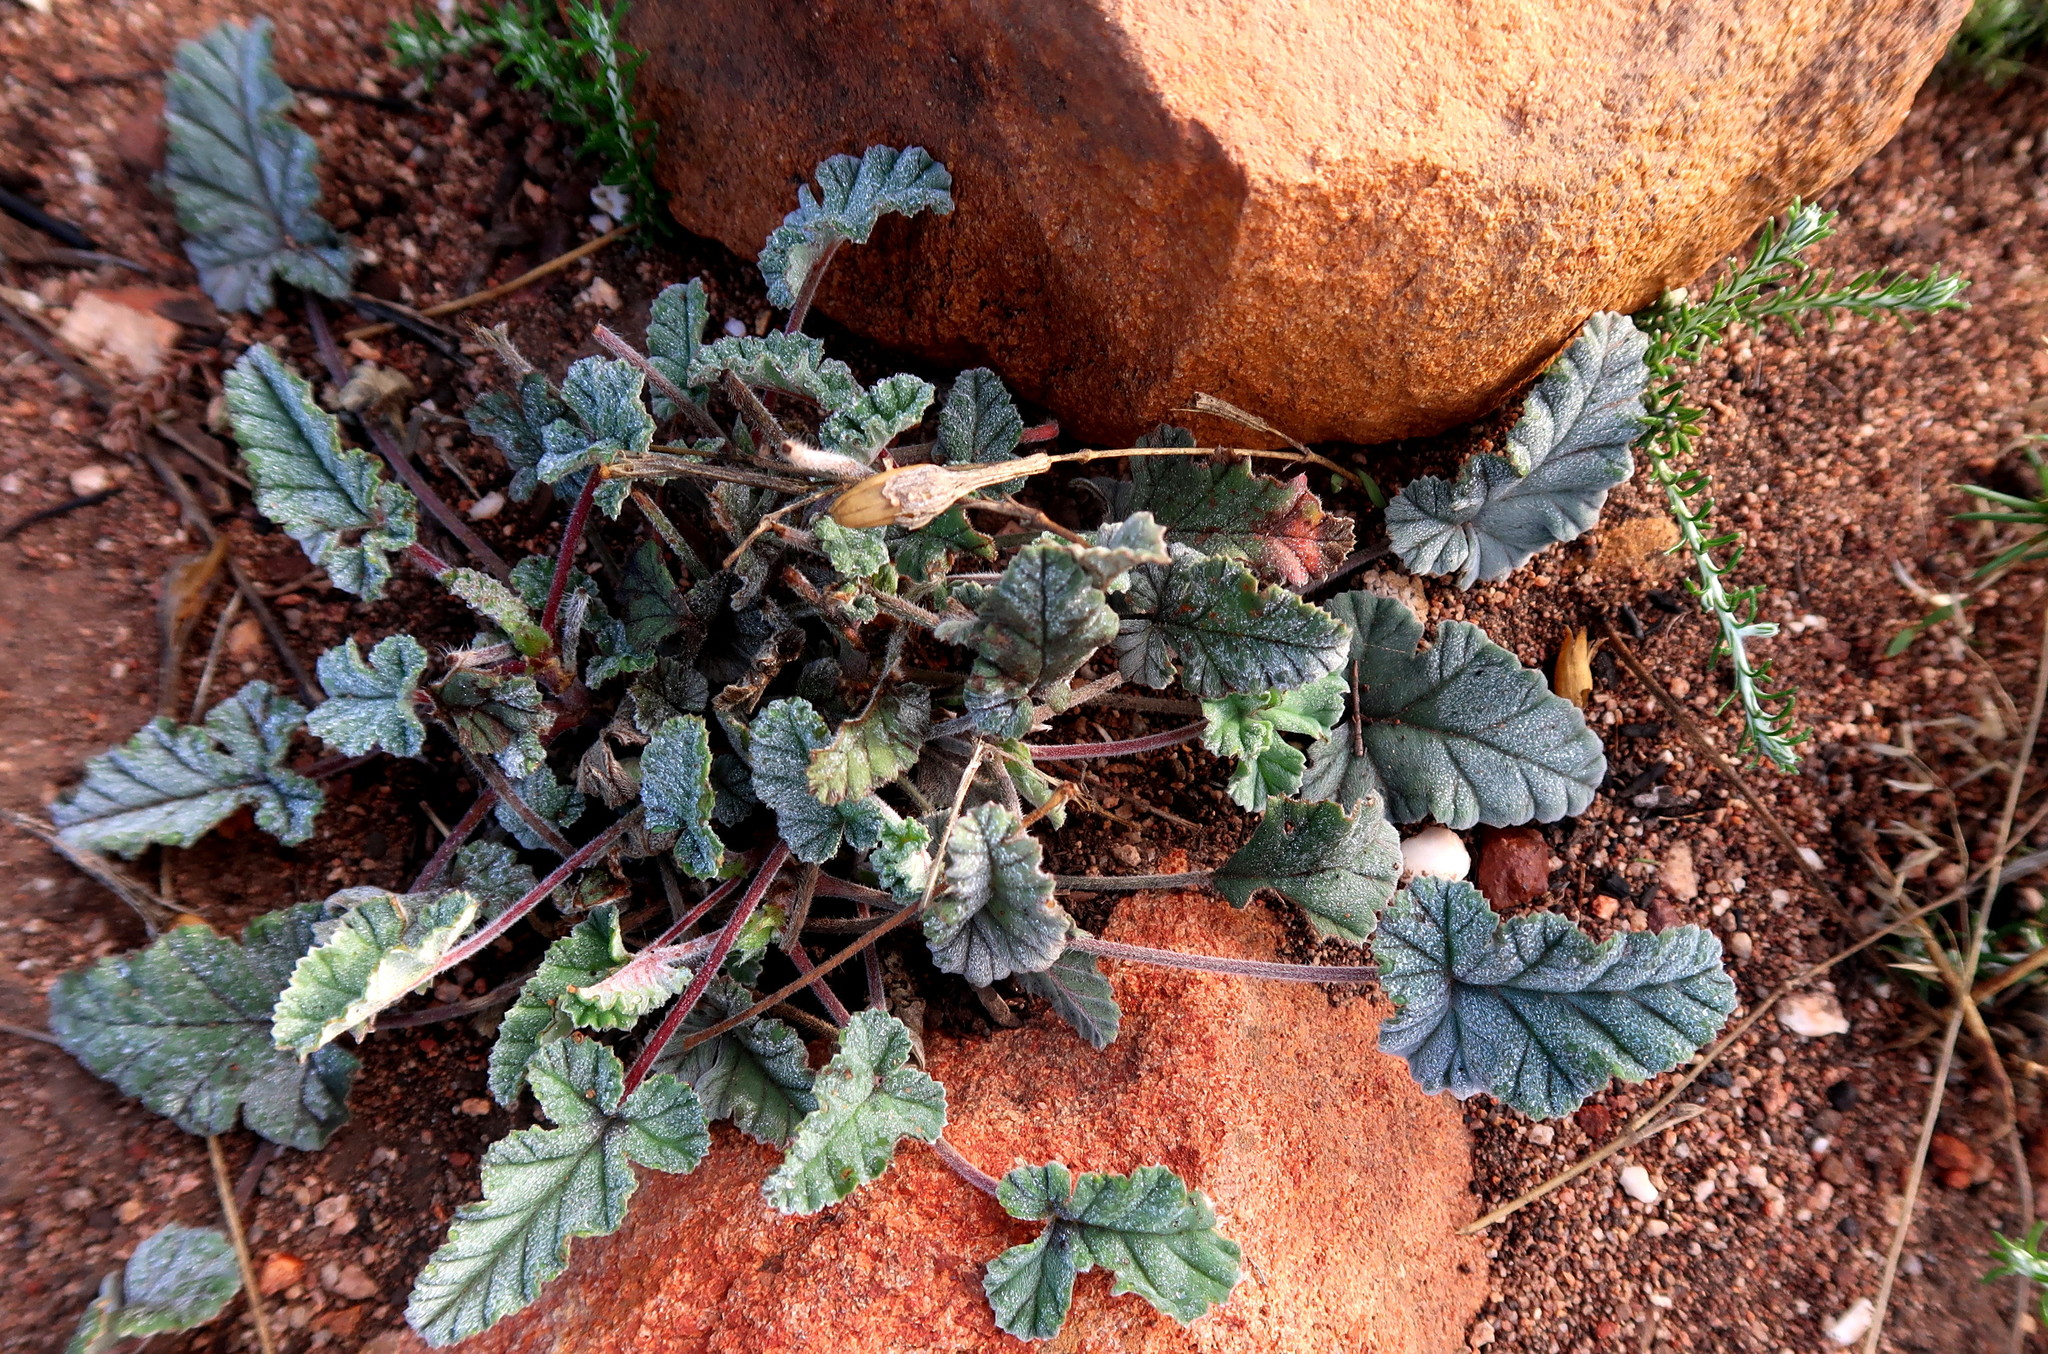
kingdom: Plantae
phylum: Tracheophyta
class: Magnoliopsida
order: Geraniales
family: Geraniaceae
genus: Pelargonium
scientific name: Pelargonium candicans
